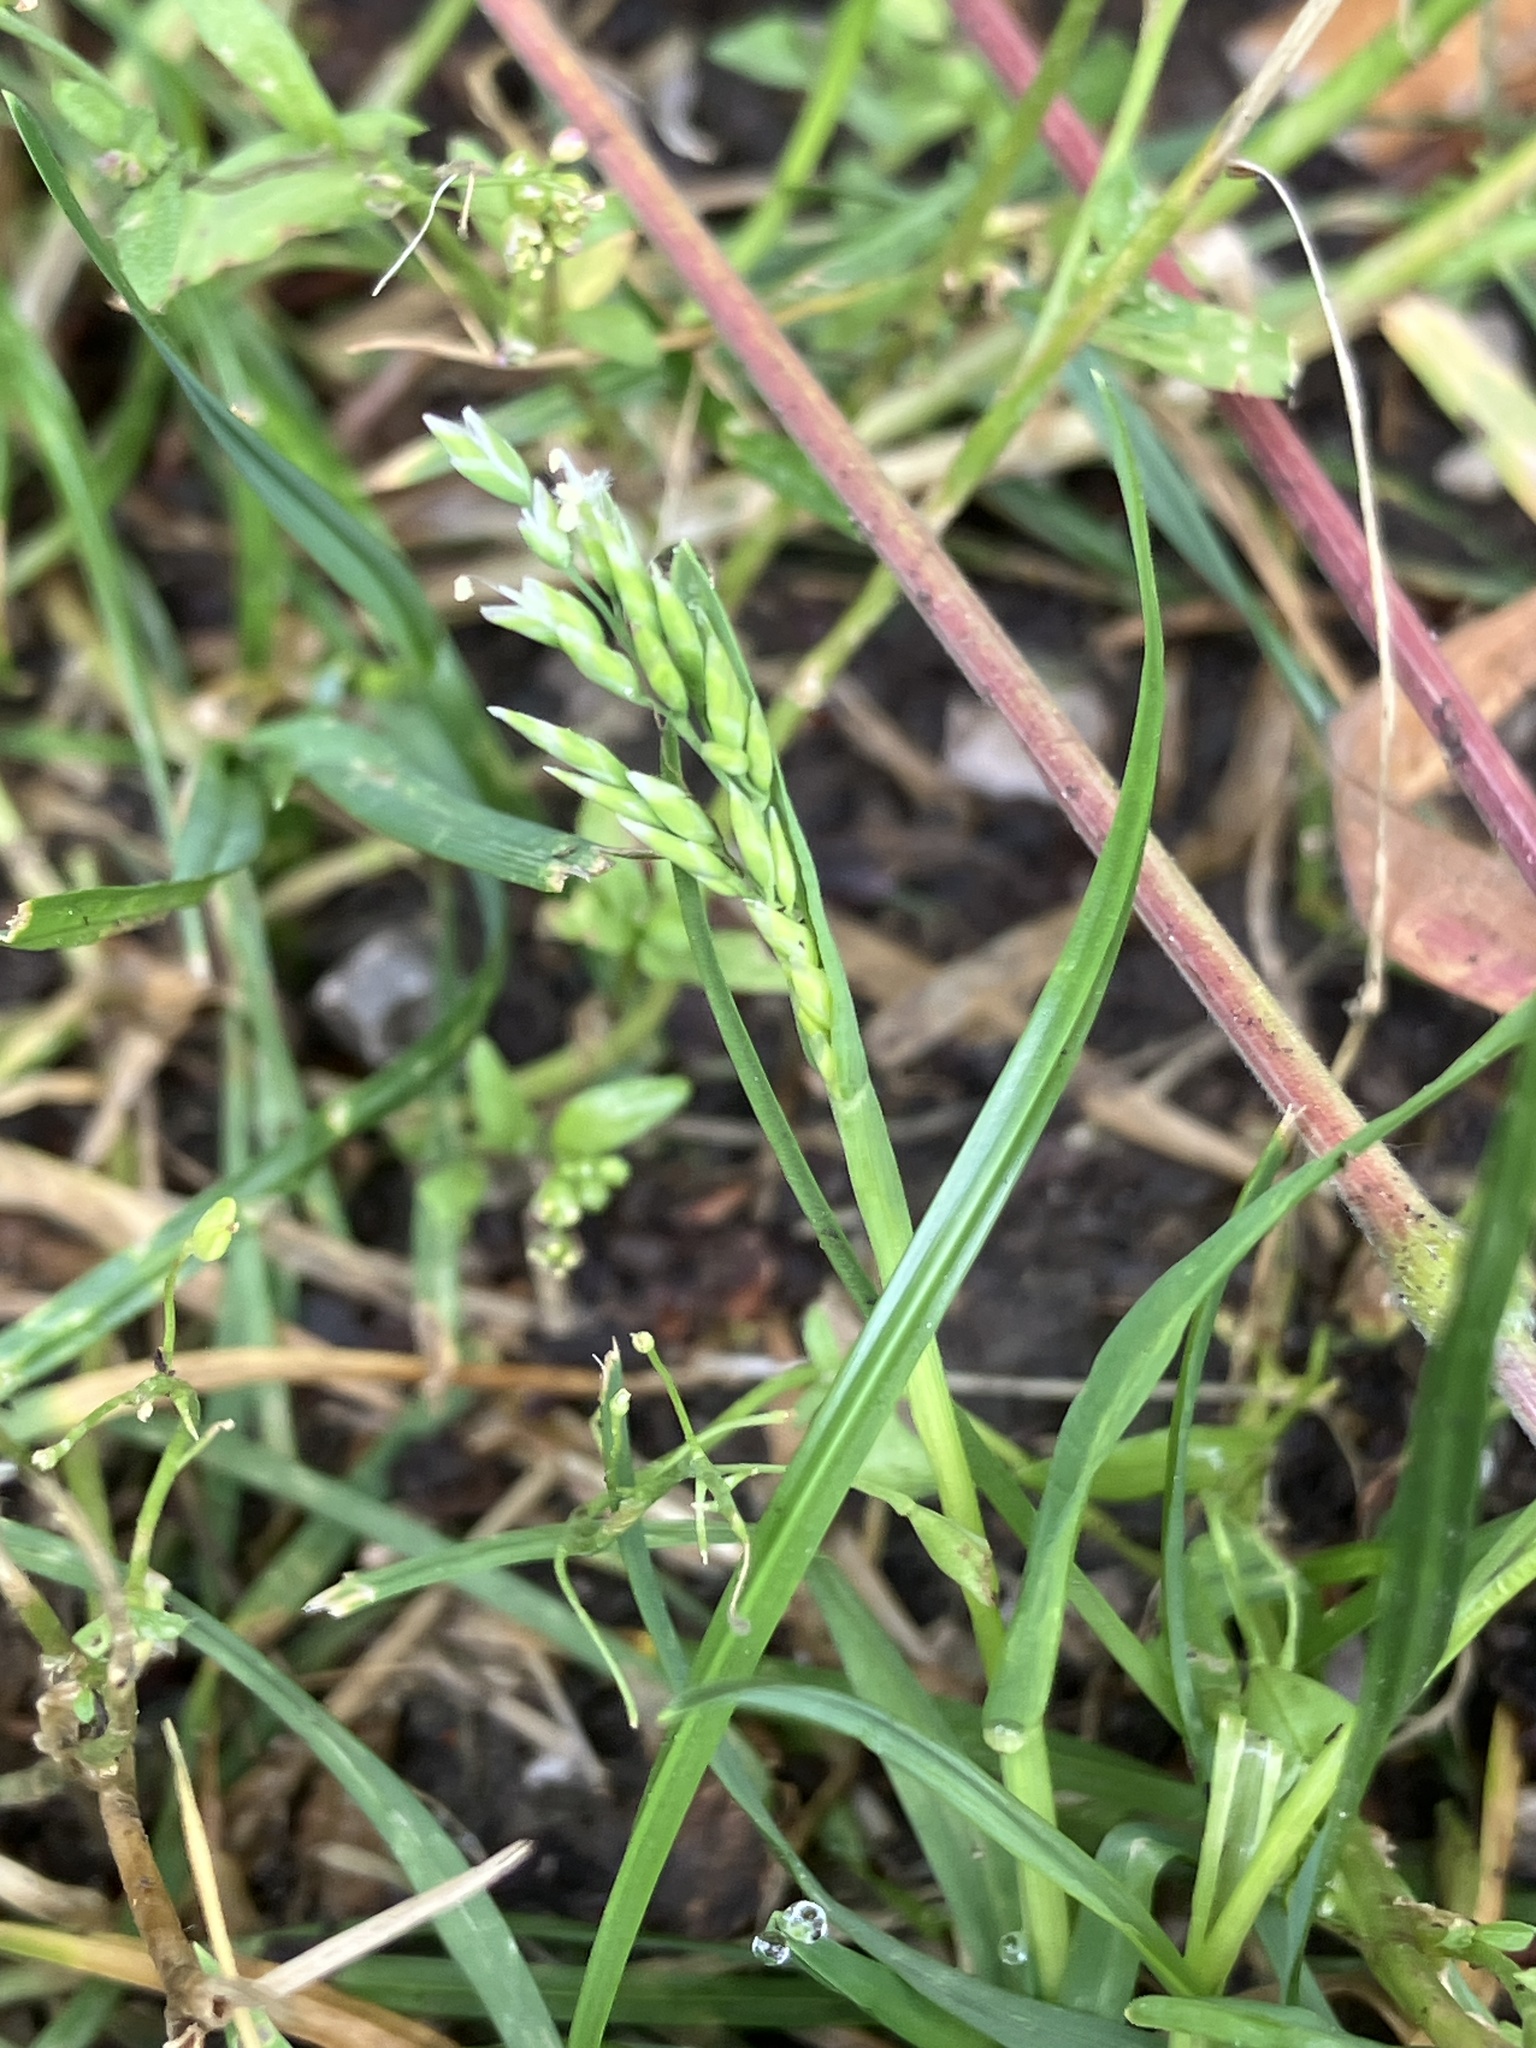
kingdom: Plantae
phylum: Tracheophyta
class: Liliopsida
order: Poales
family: Poaceae
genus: Poa
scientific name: Poa annua
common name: Annual bluegrass
